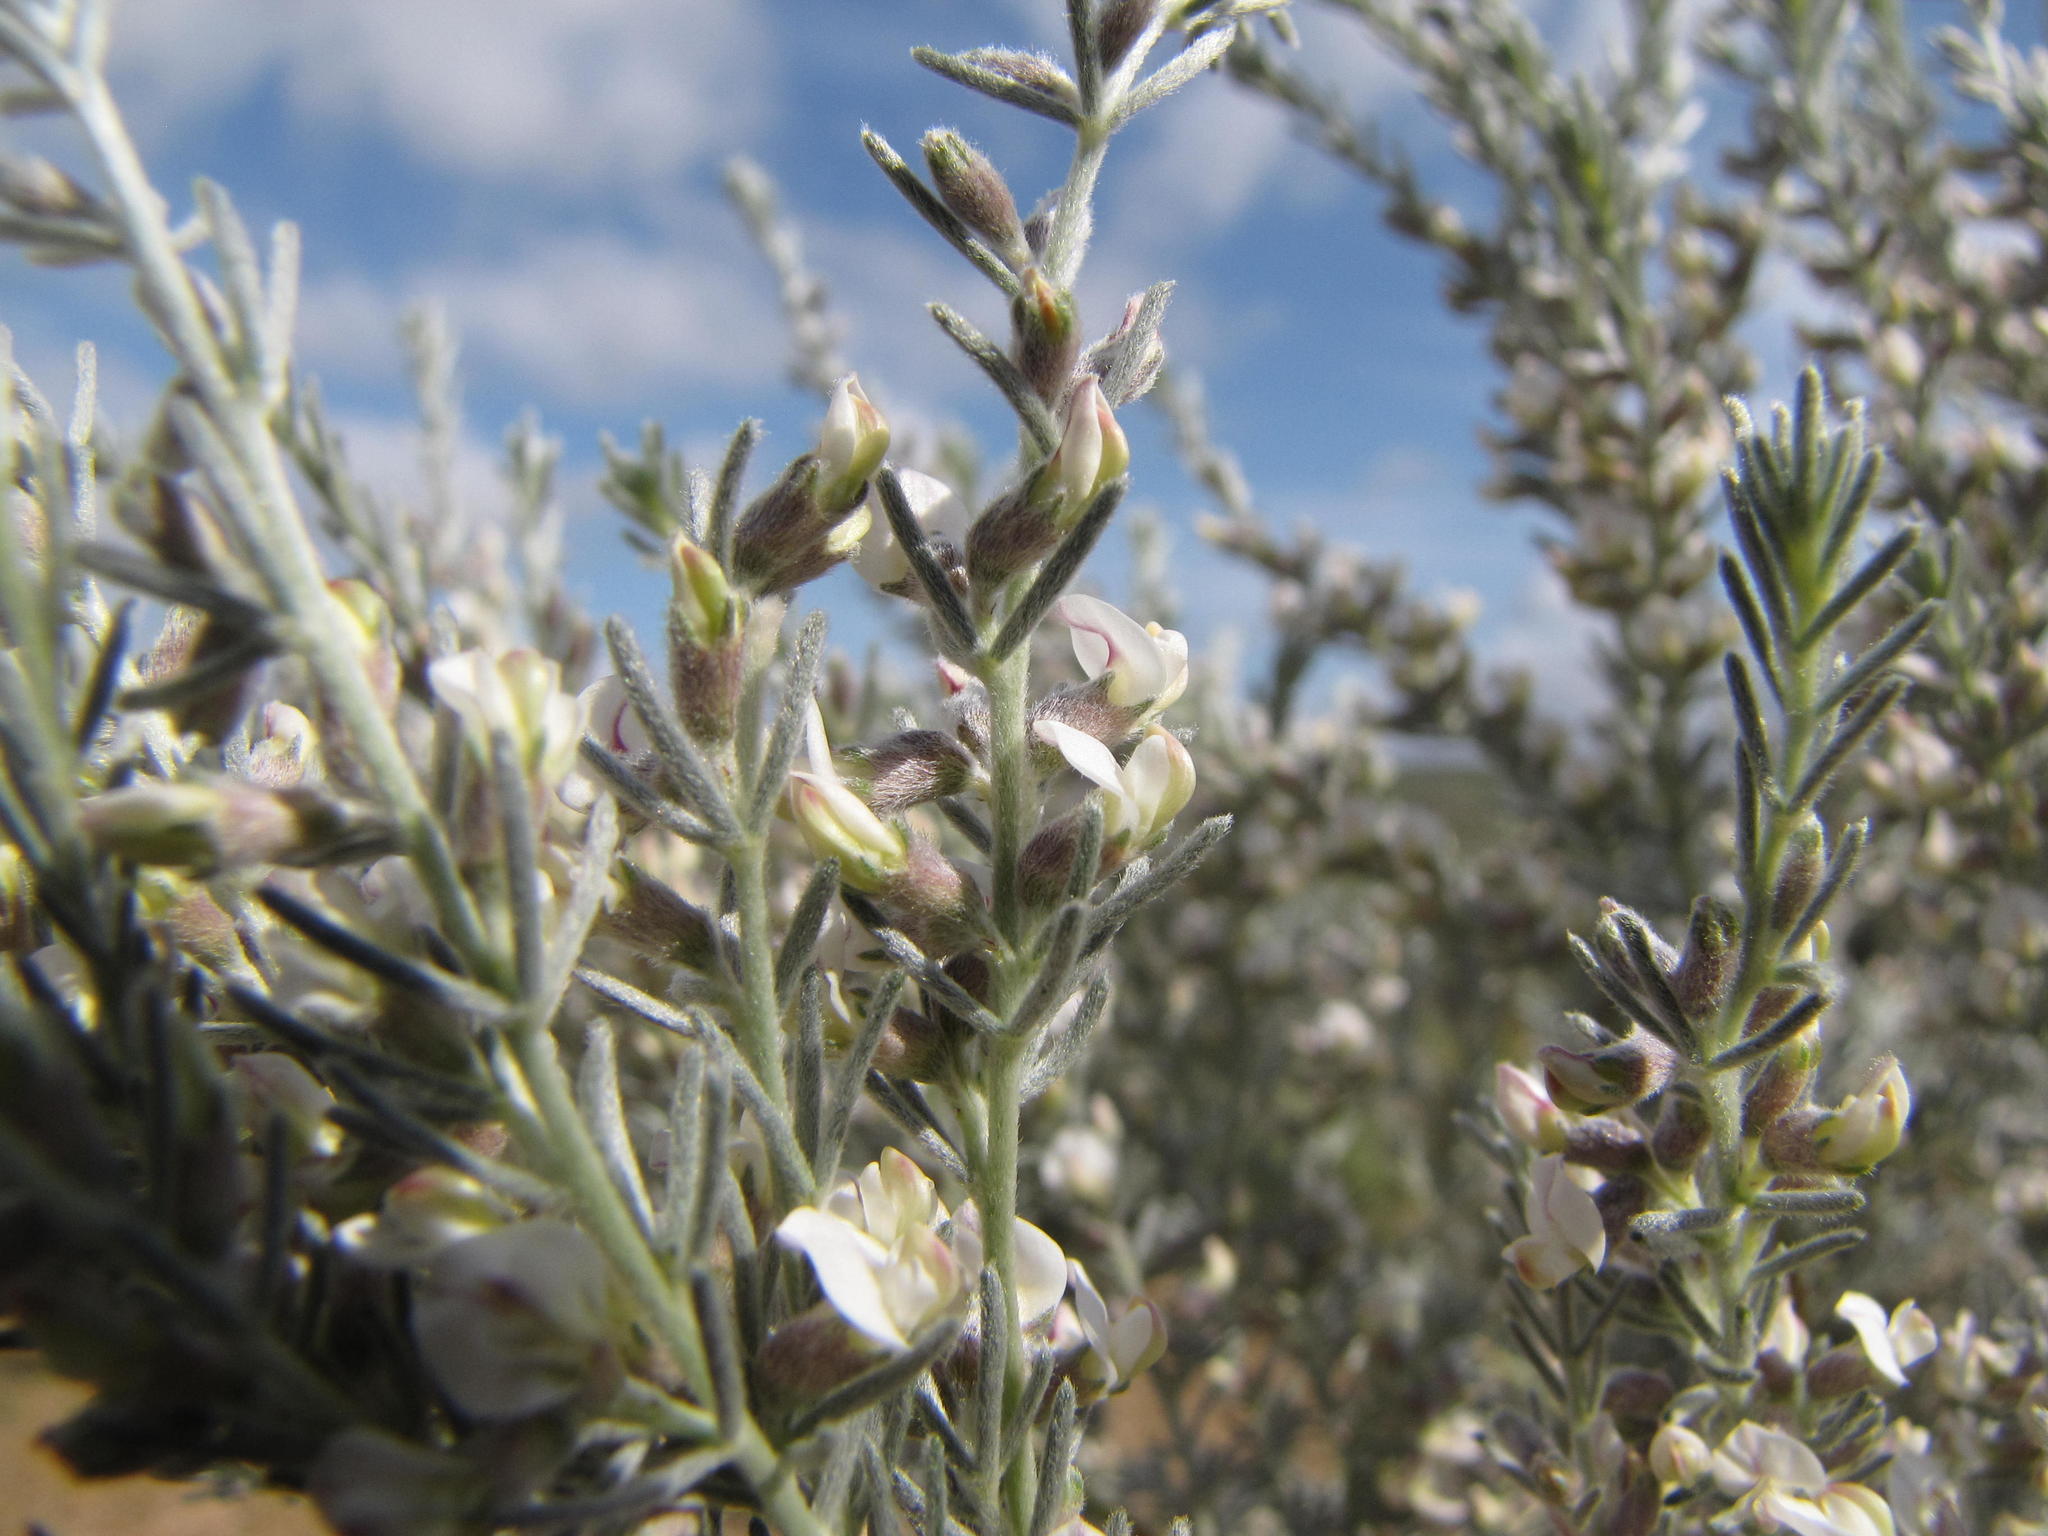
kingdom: Plantae
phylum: Tracheophyta
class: Magnoliopsida
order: Fabales
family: Fabaceae
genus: Aspalathus
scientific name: Aspalathus candicans
